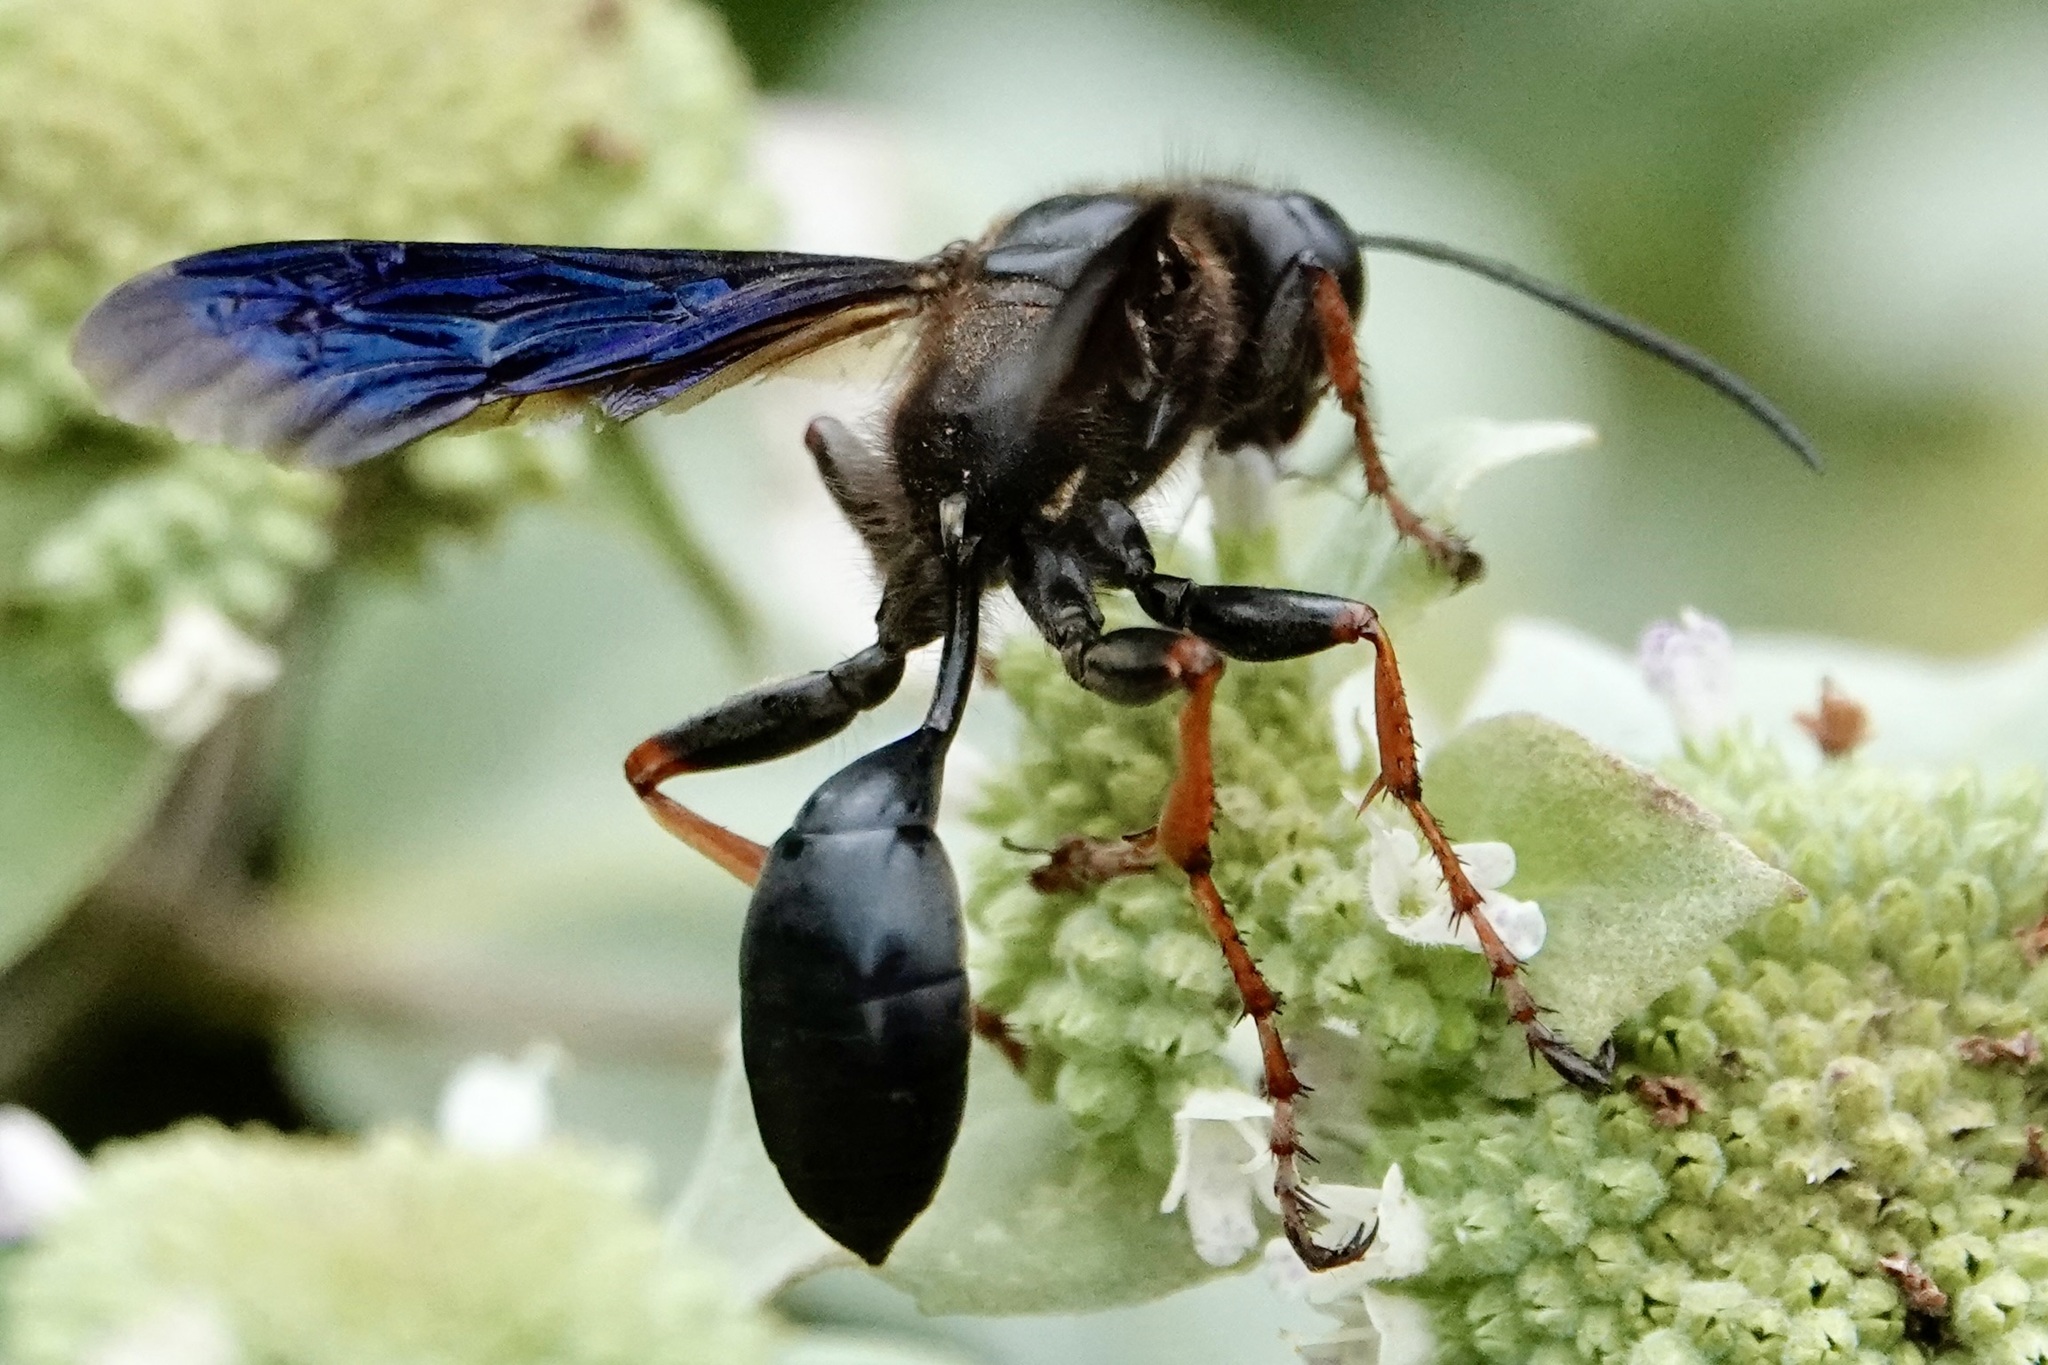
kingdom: Animalia
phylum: Arthropoda
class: Insecta
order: Hymenoptera
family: Sphecidae
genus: Isodontia
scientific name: Isodontia auripes
